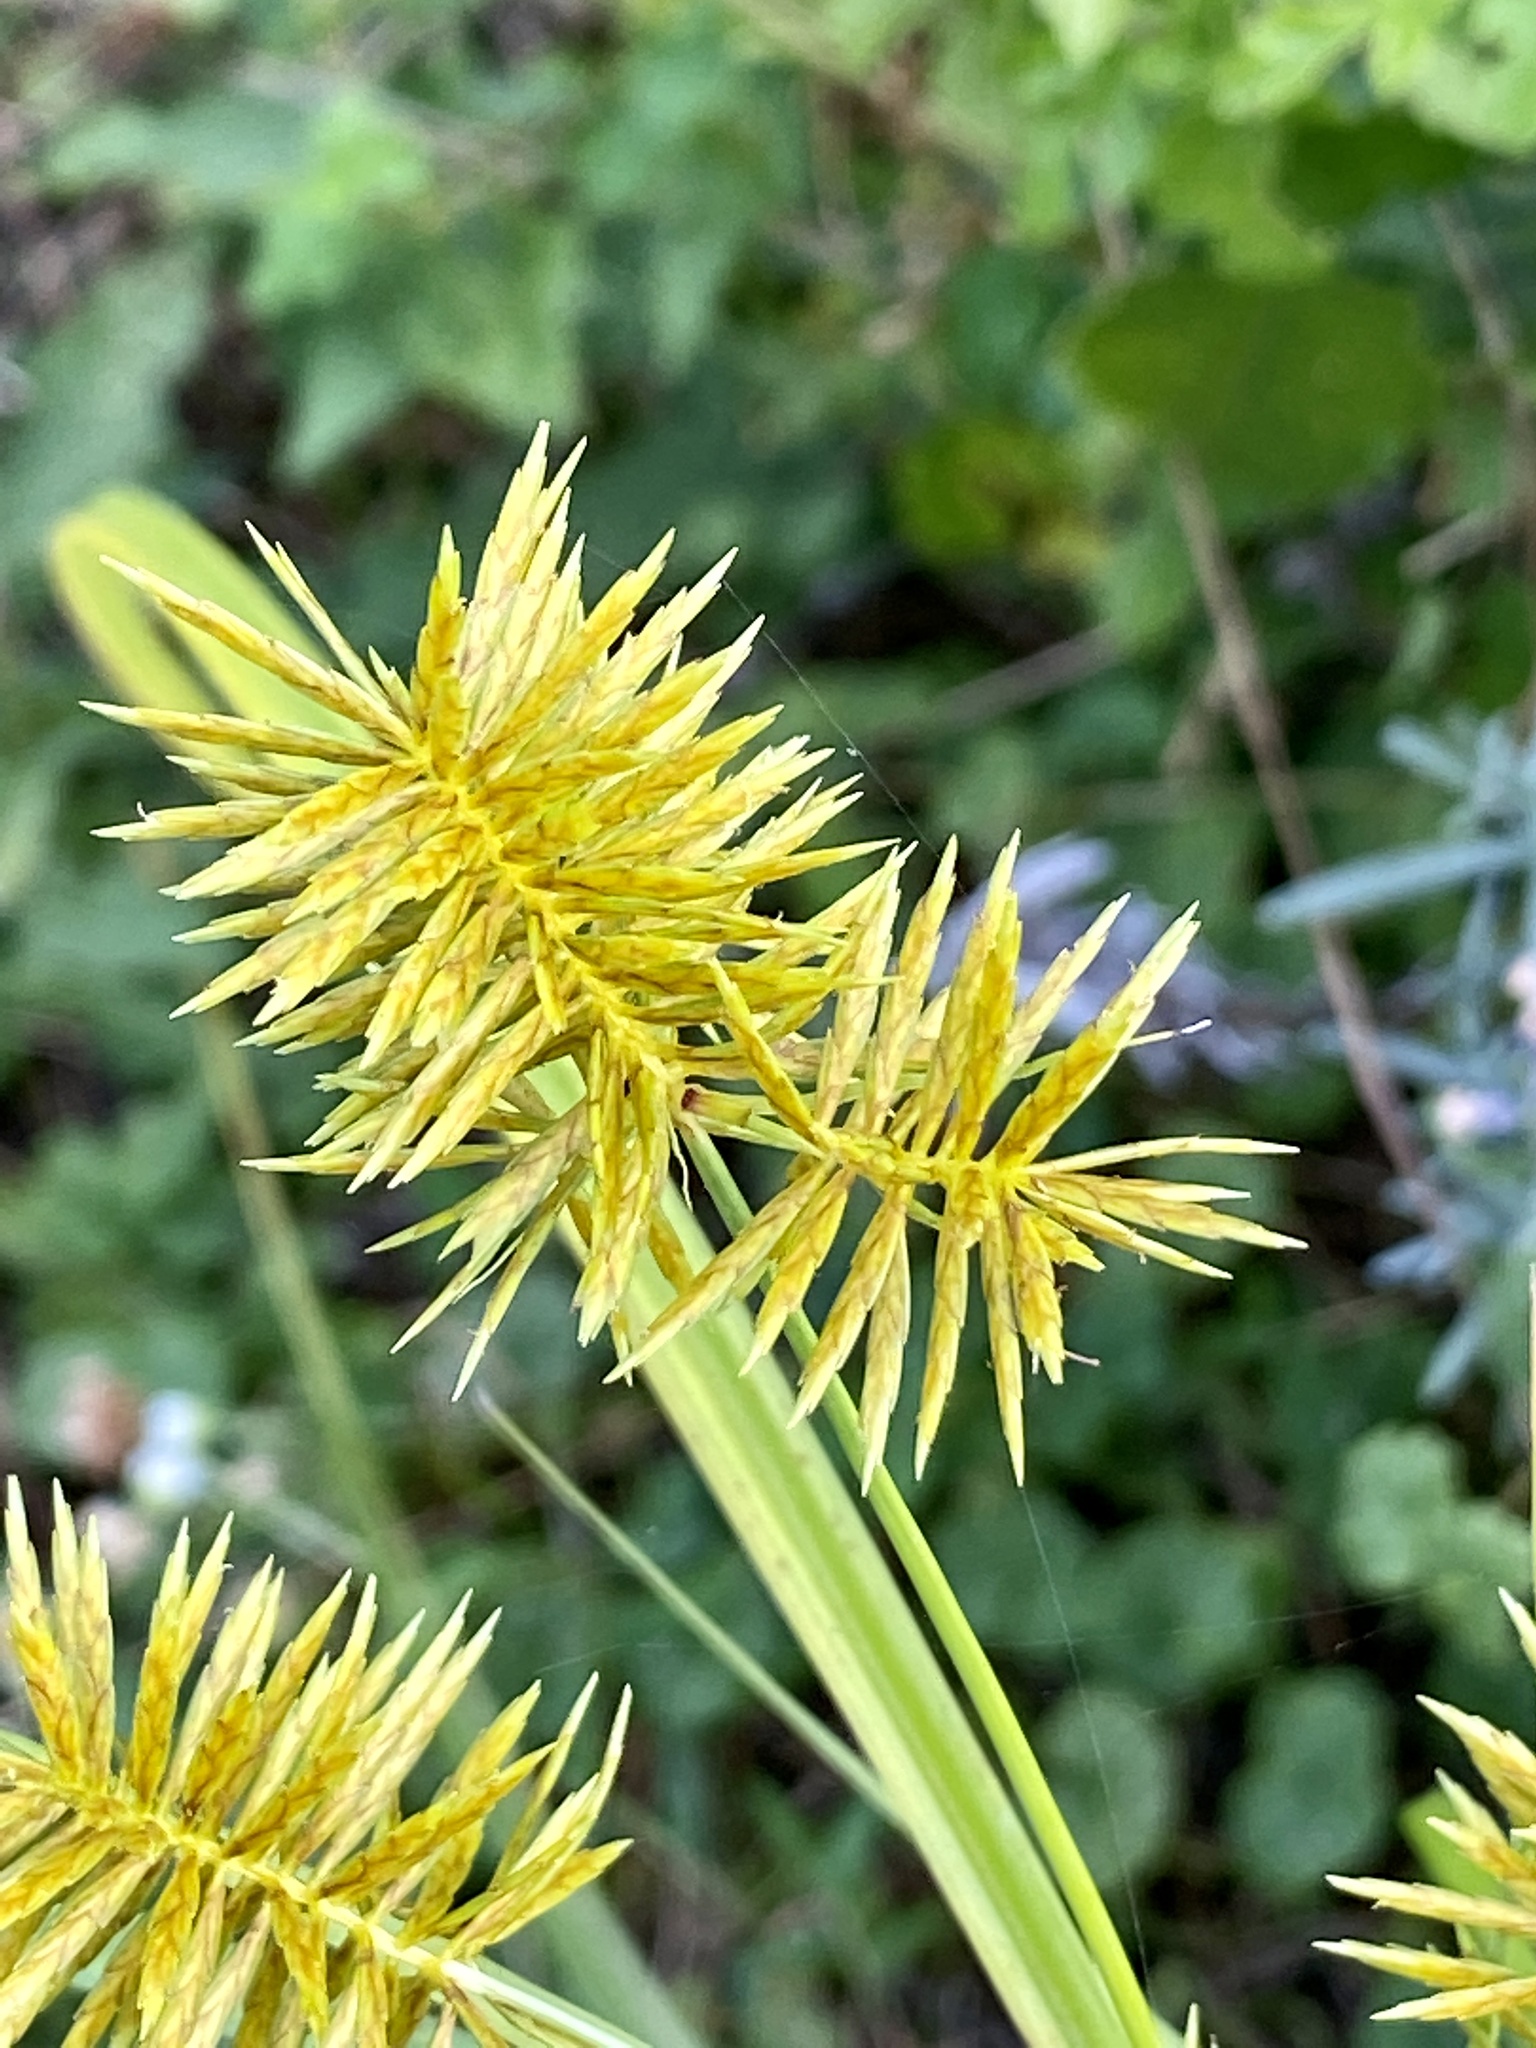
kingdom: Plantae
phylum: Tracheophyta
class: Liliopsida
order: Poales
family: Cyperaceae
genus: Cyperus
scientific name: Cyperus strigosus
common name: False nutsedge
